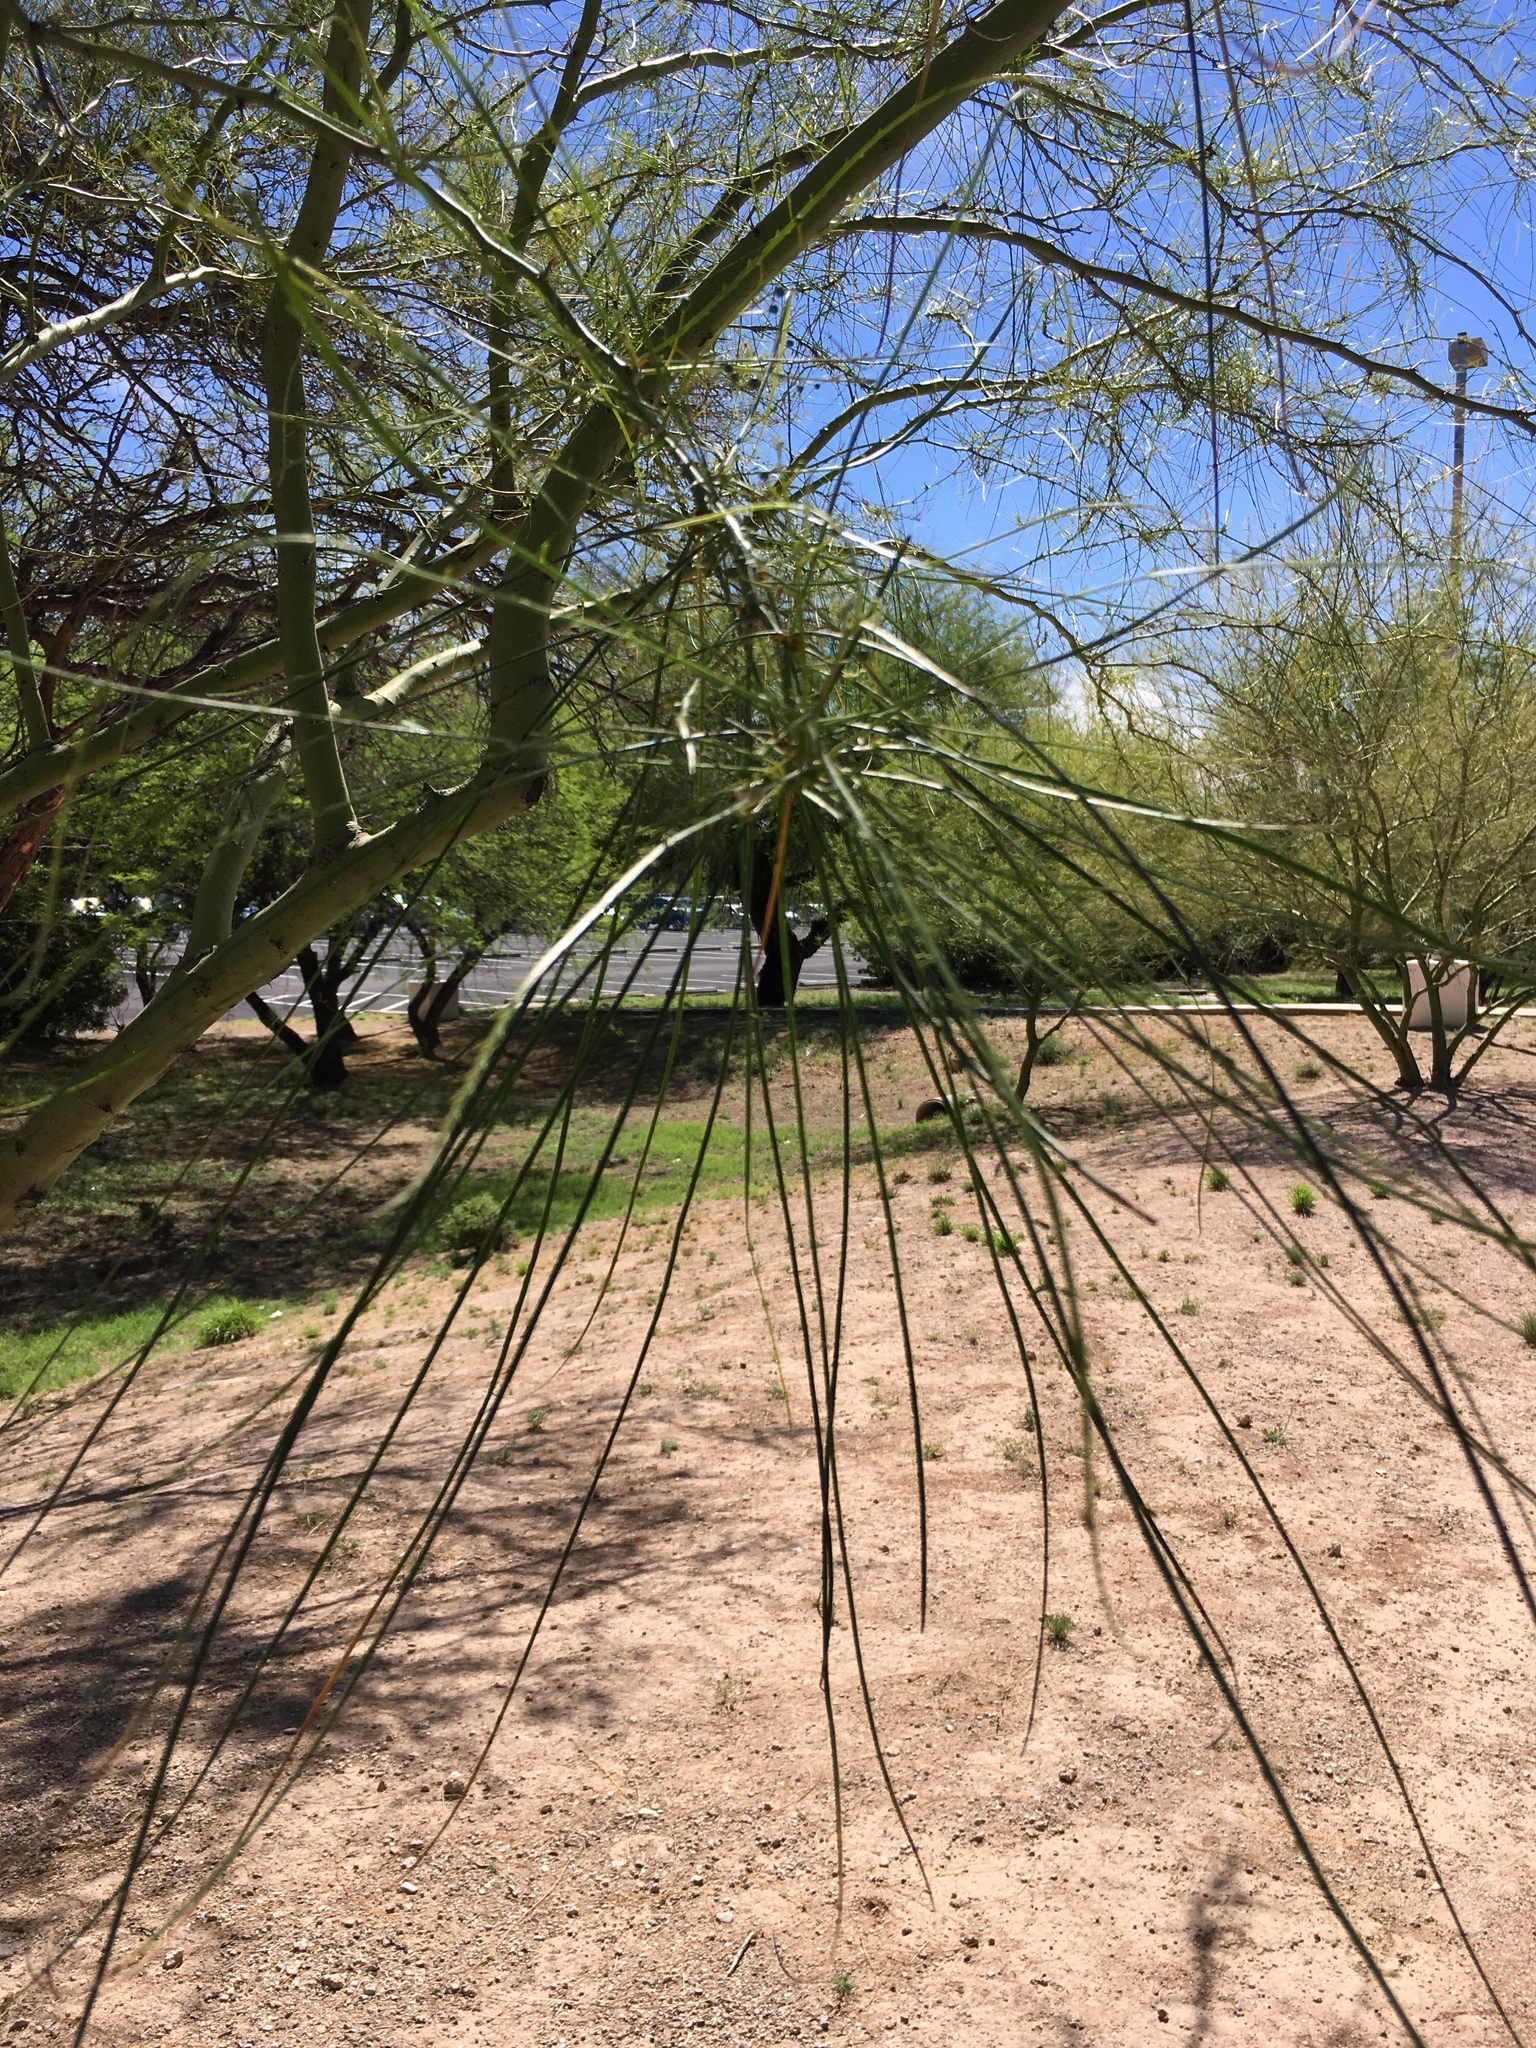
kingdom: Plantae
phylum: Tracheophyta
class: Magnoliopsida
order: Fabales
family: Fabaceae
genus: Parkinsonia
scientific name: Parkinsonia aculeata
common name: Jerusalem thorn
